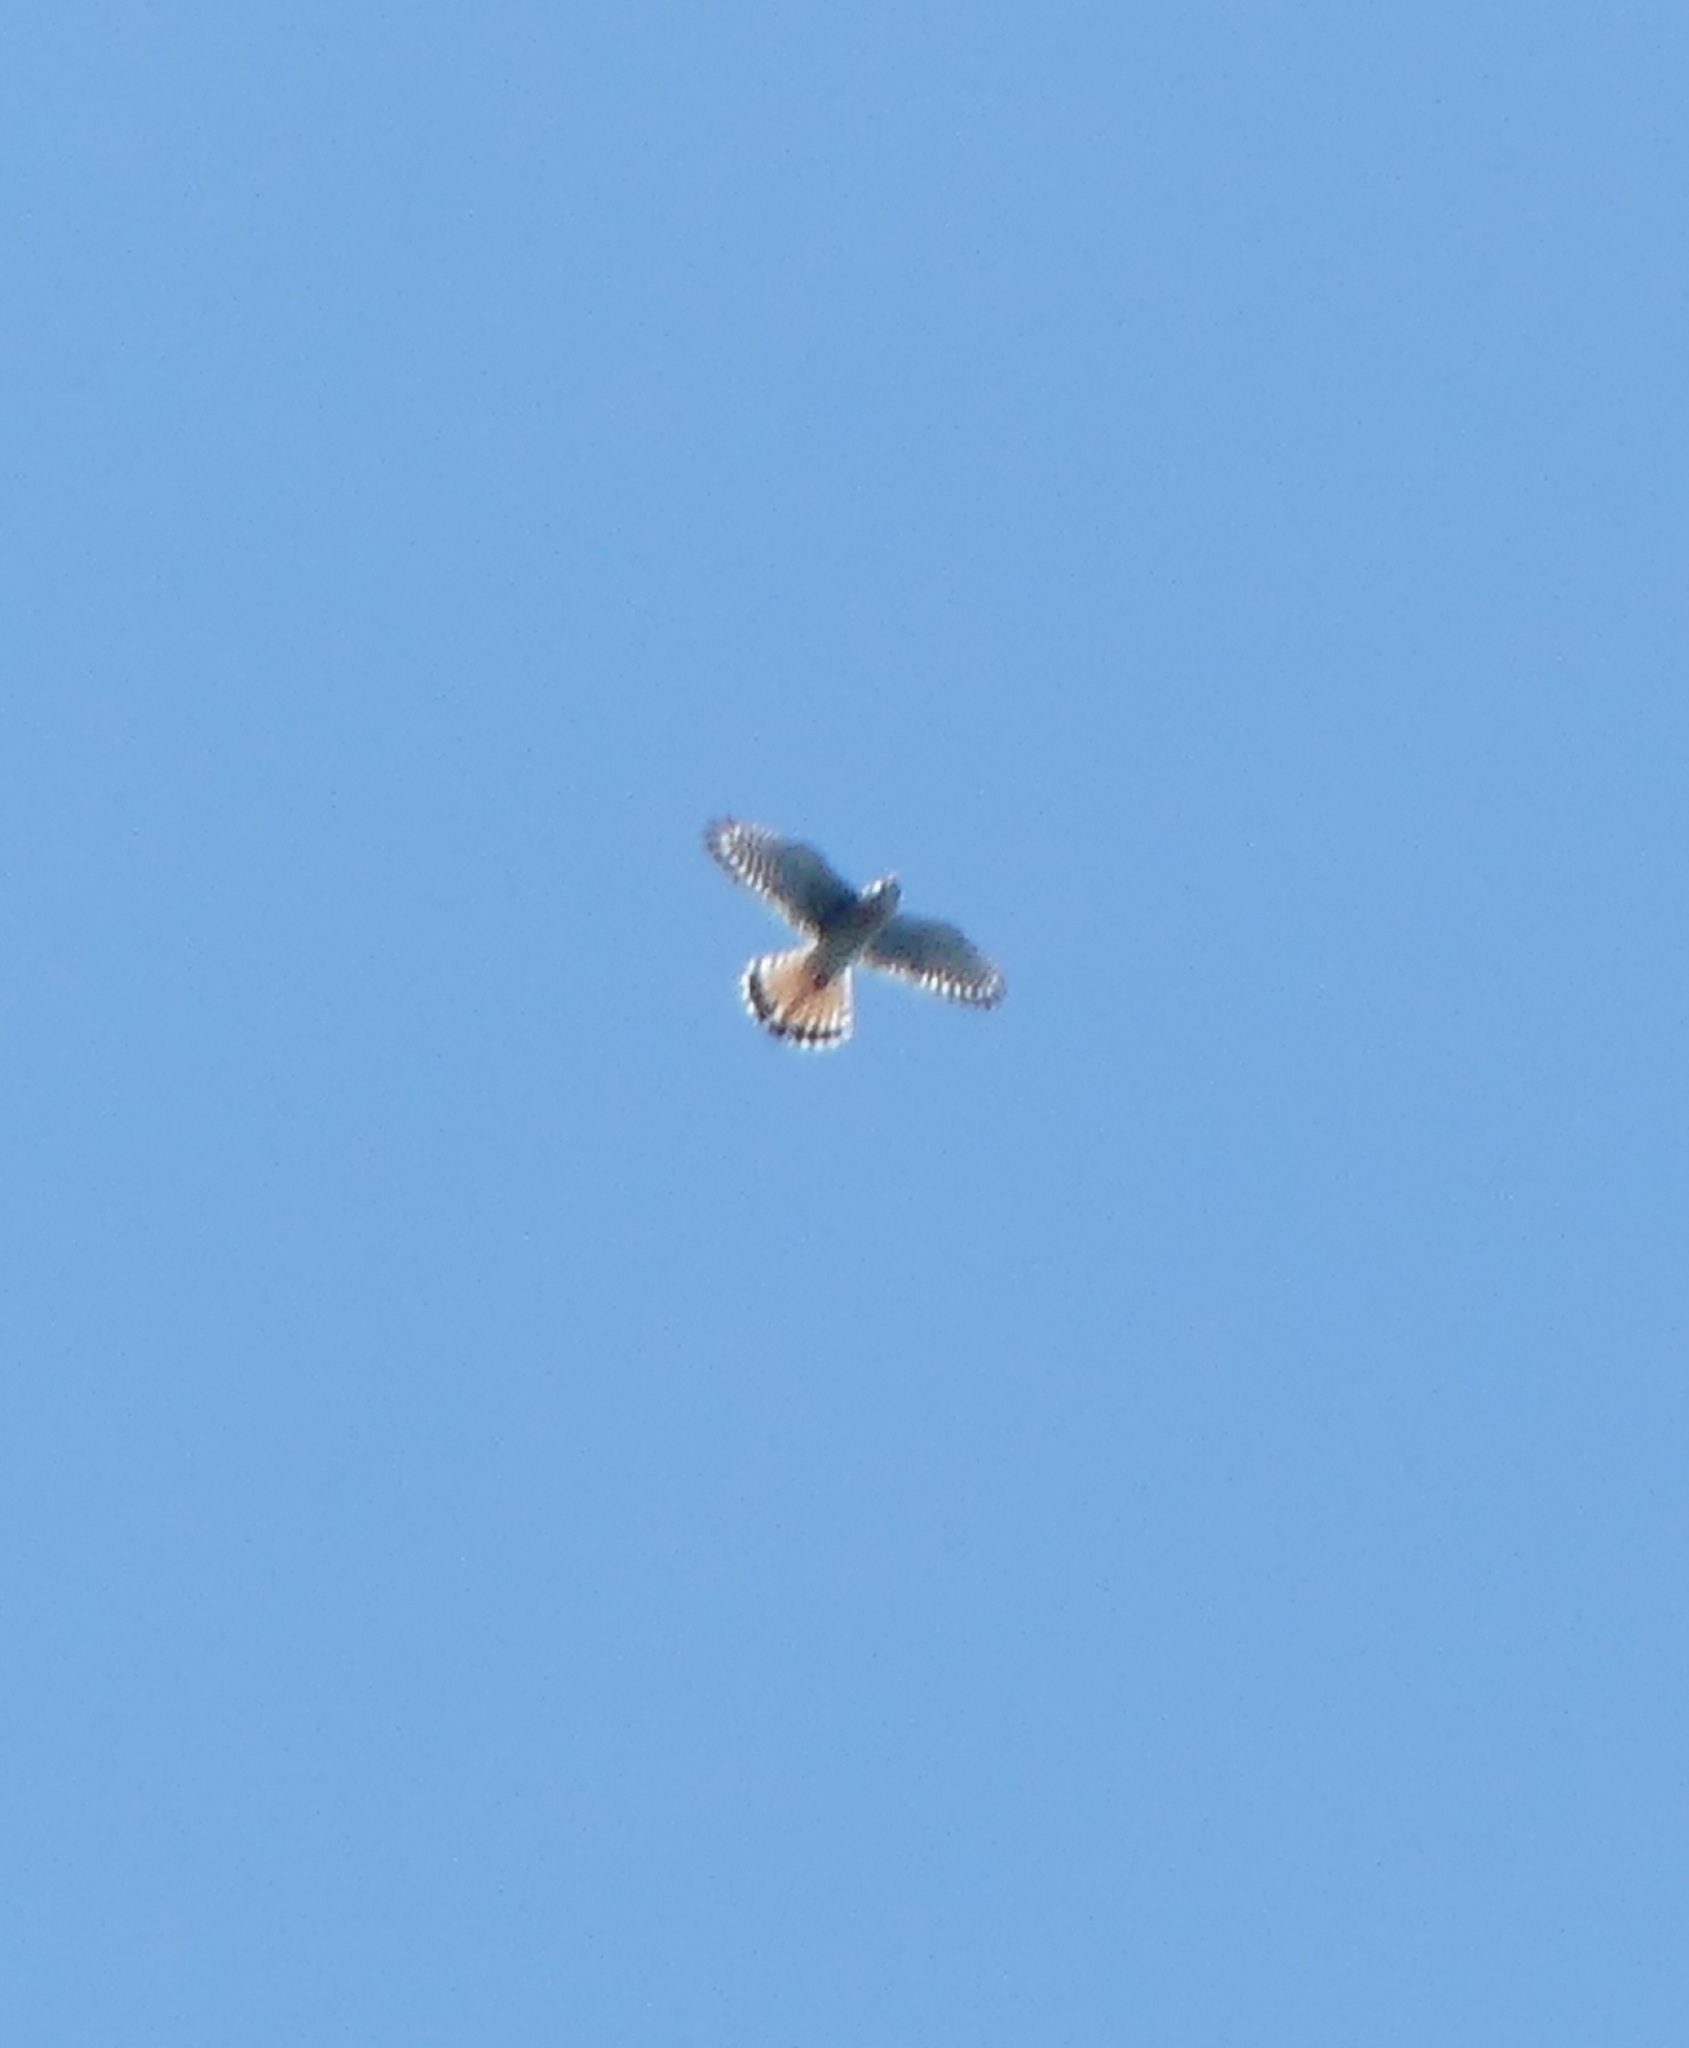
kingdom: Animalia
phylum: Chordata
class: Aves
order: Falconiformes
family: Falconidae
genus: Falco
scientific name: Falco sparverius
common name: American kestrel
